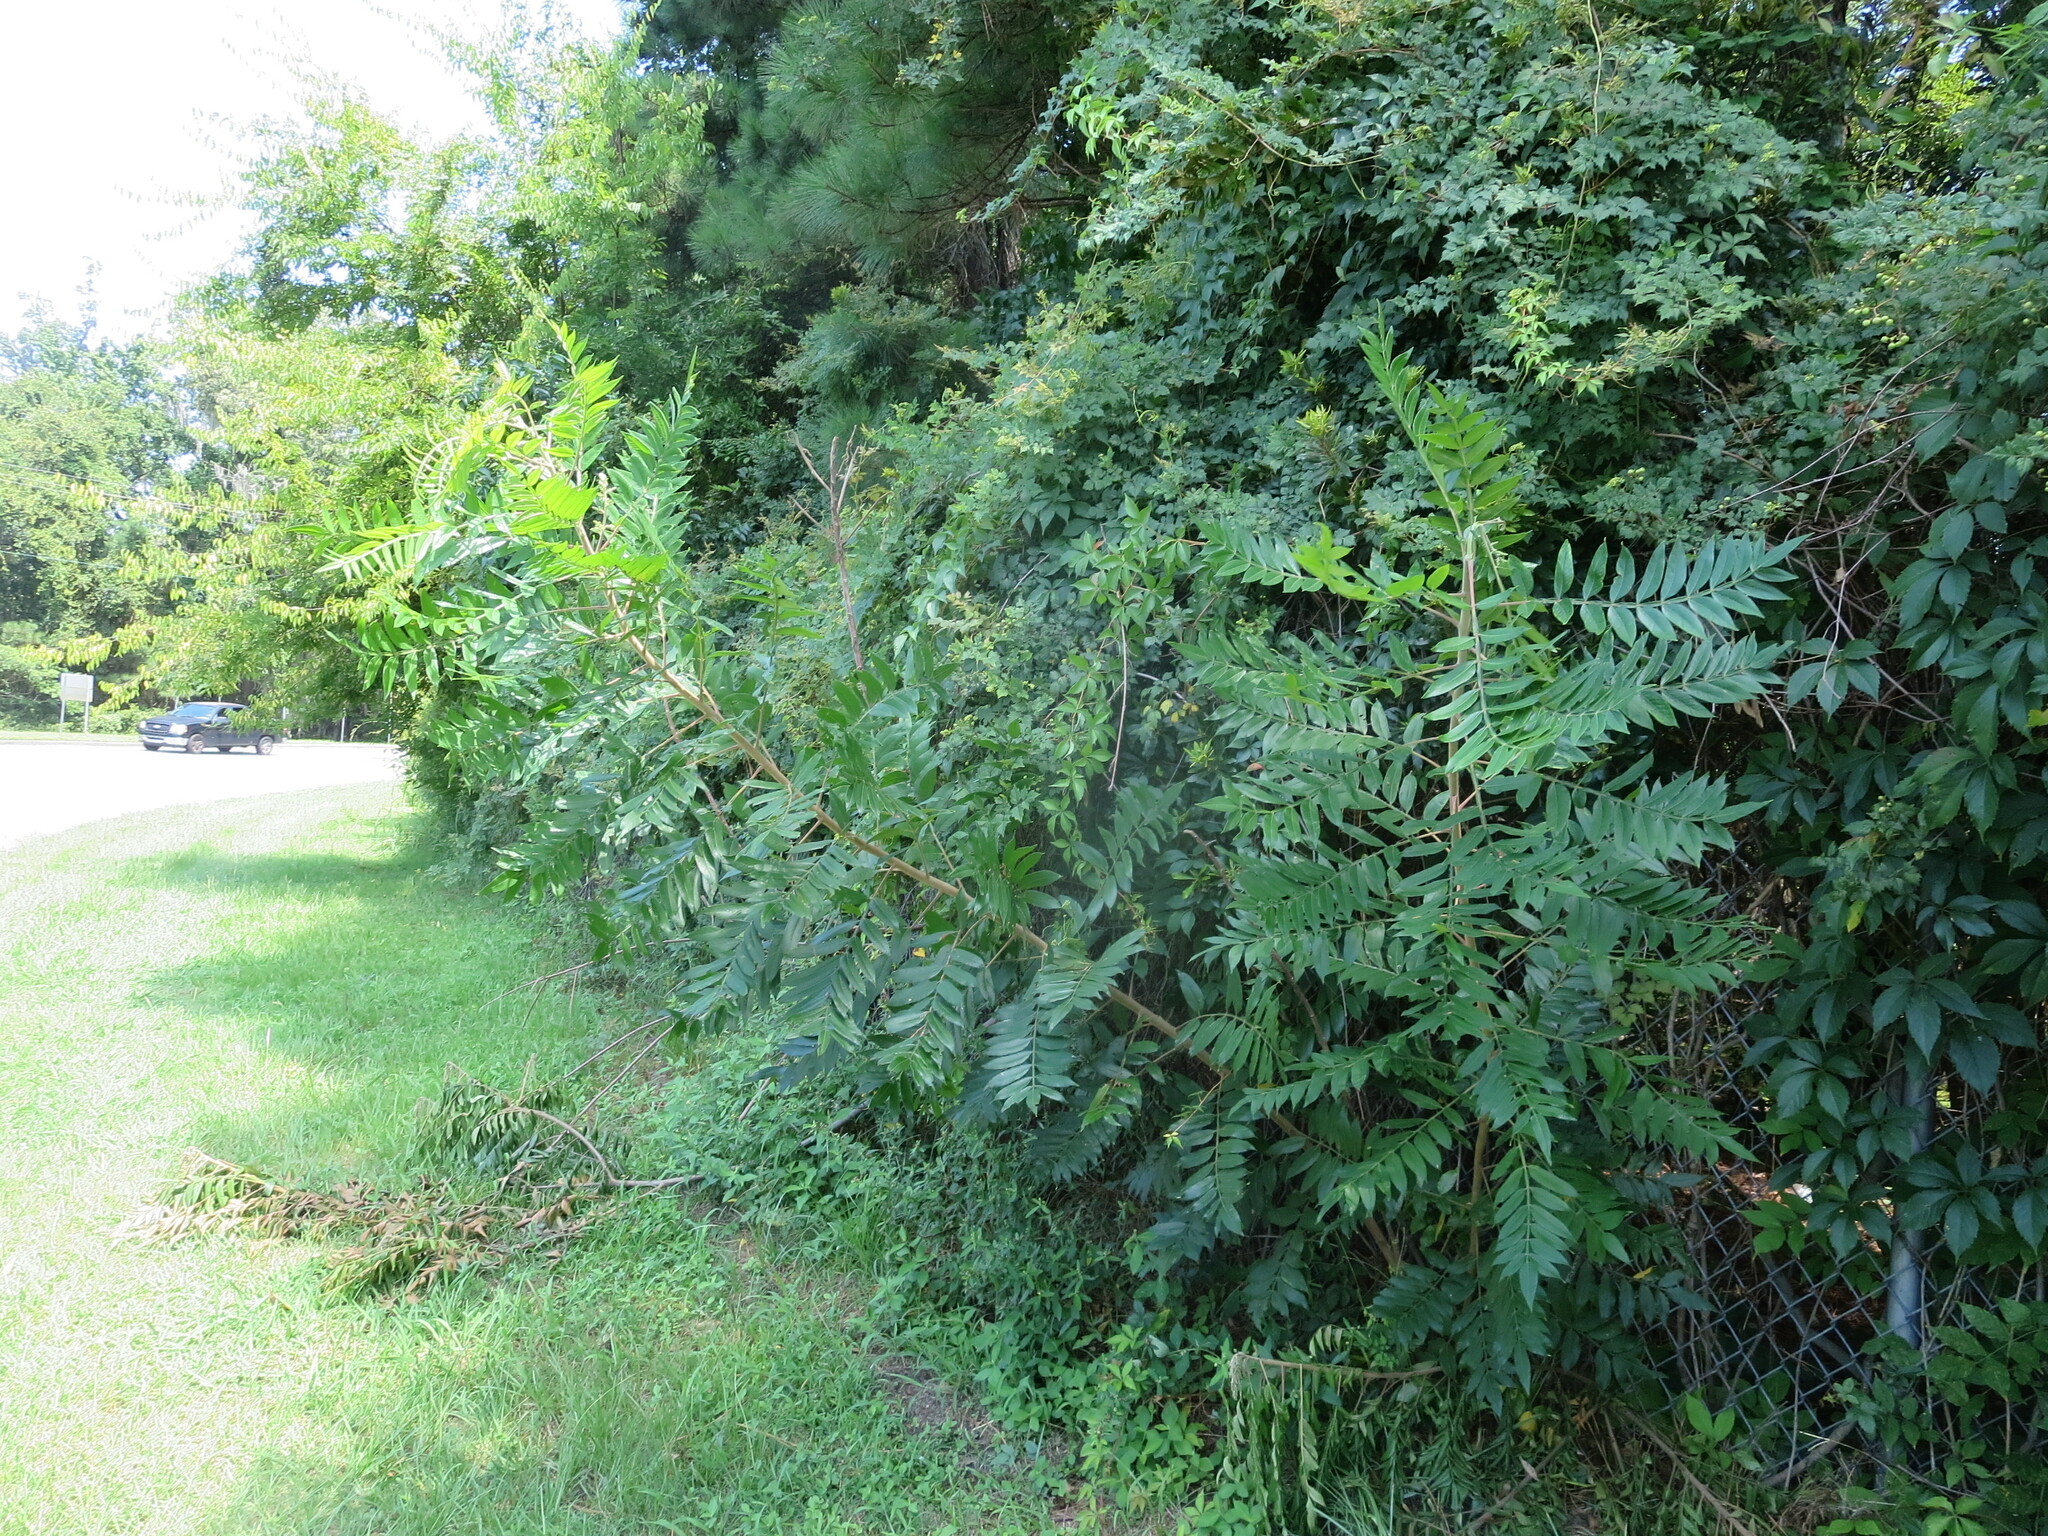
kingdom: Plantae
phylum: Tracheophyta
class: Magnoliopsida
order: Sapindales
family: Anacardiaceae
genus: Rhus
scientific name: Rhus copallina
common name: Shining sumac
